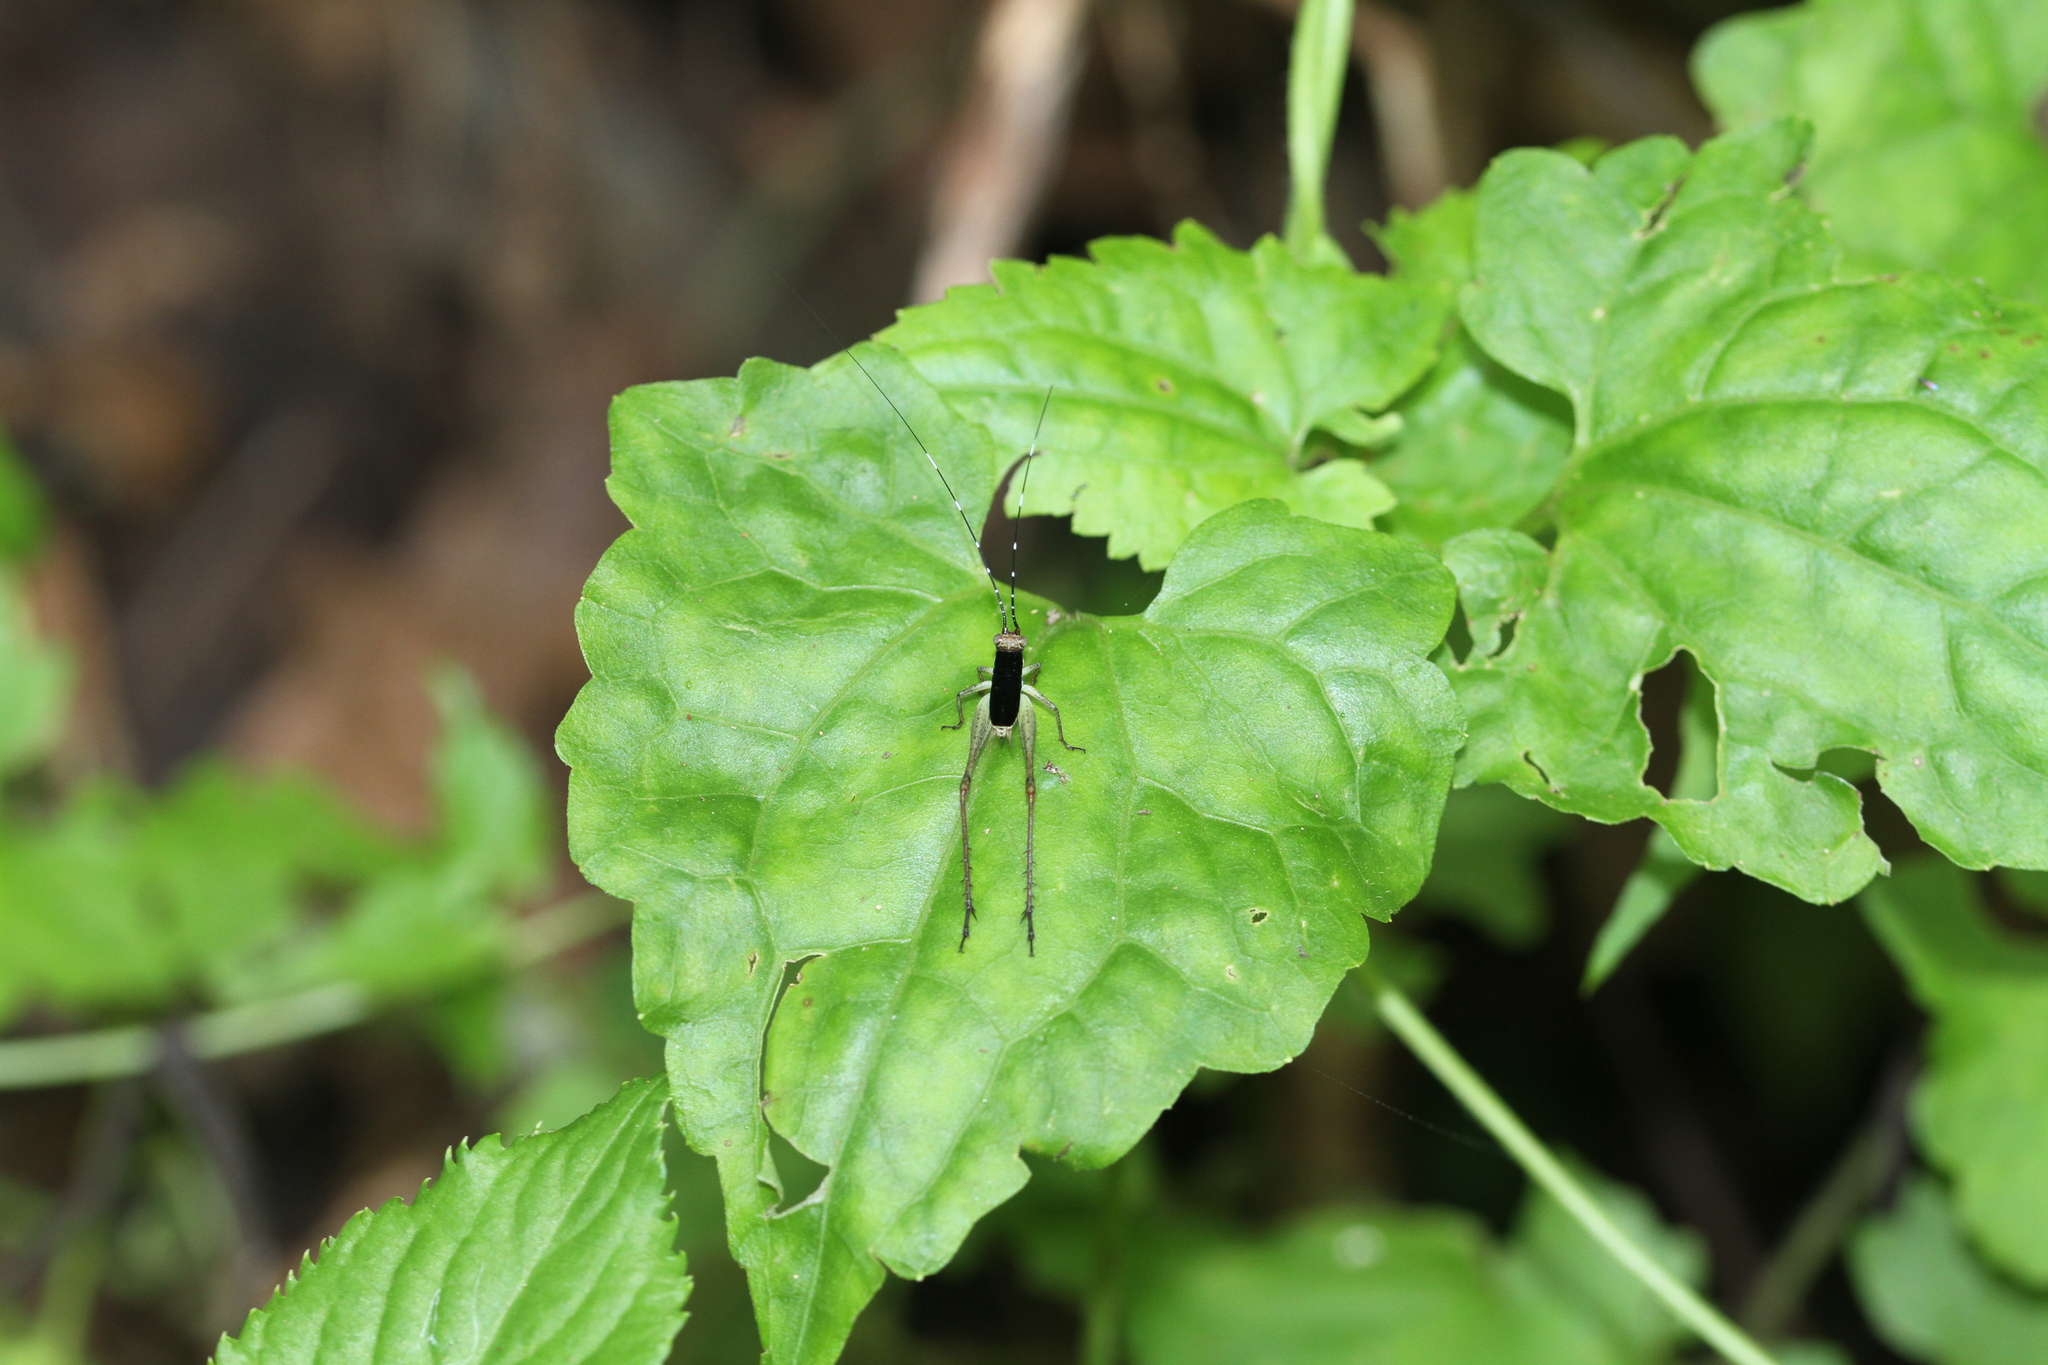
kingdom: Animalia
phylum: Arthropoda
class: Insecta
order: Orthoptera
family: Gryllidae
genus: Nisitrus
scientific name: Nisitrus insignis
